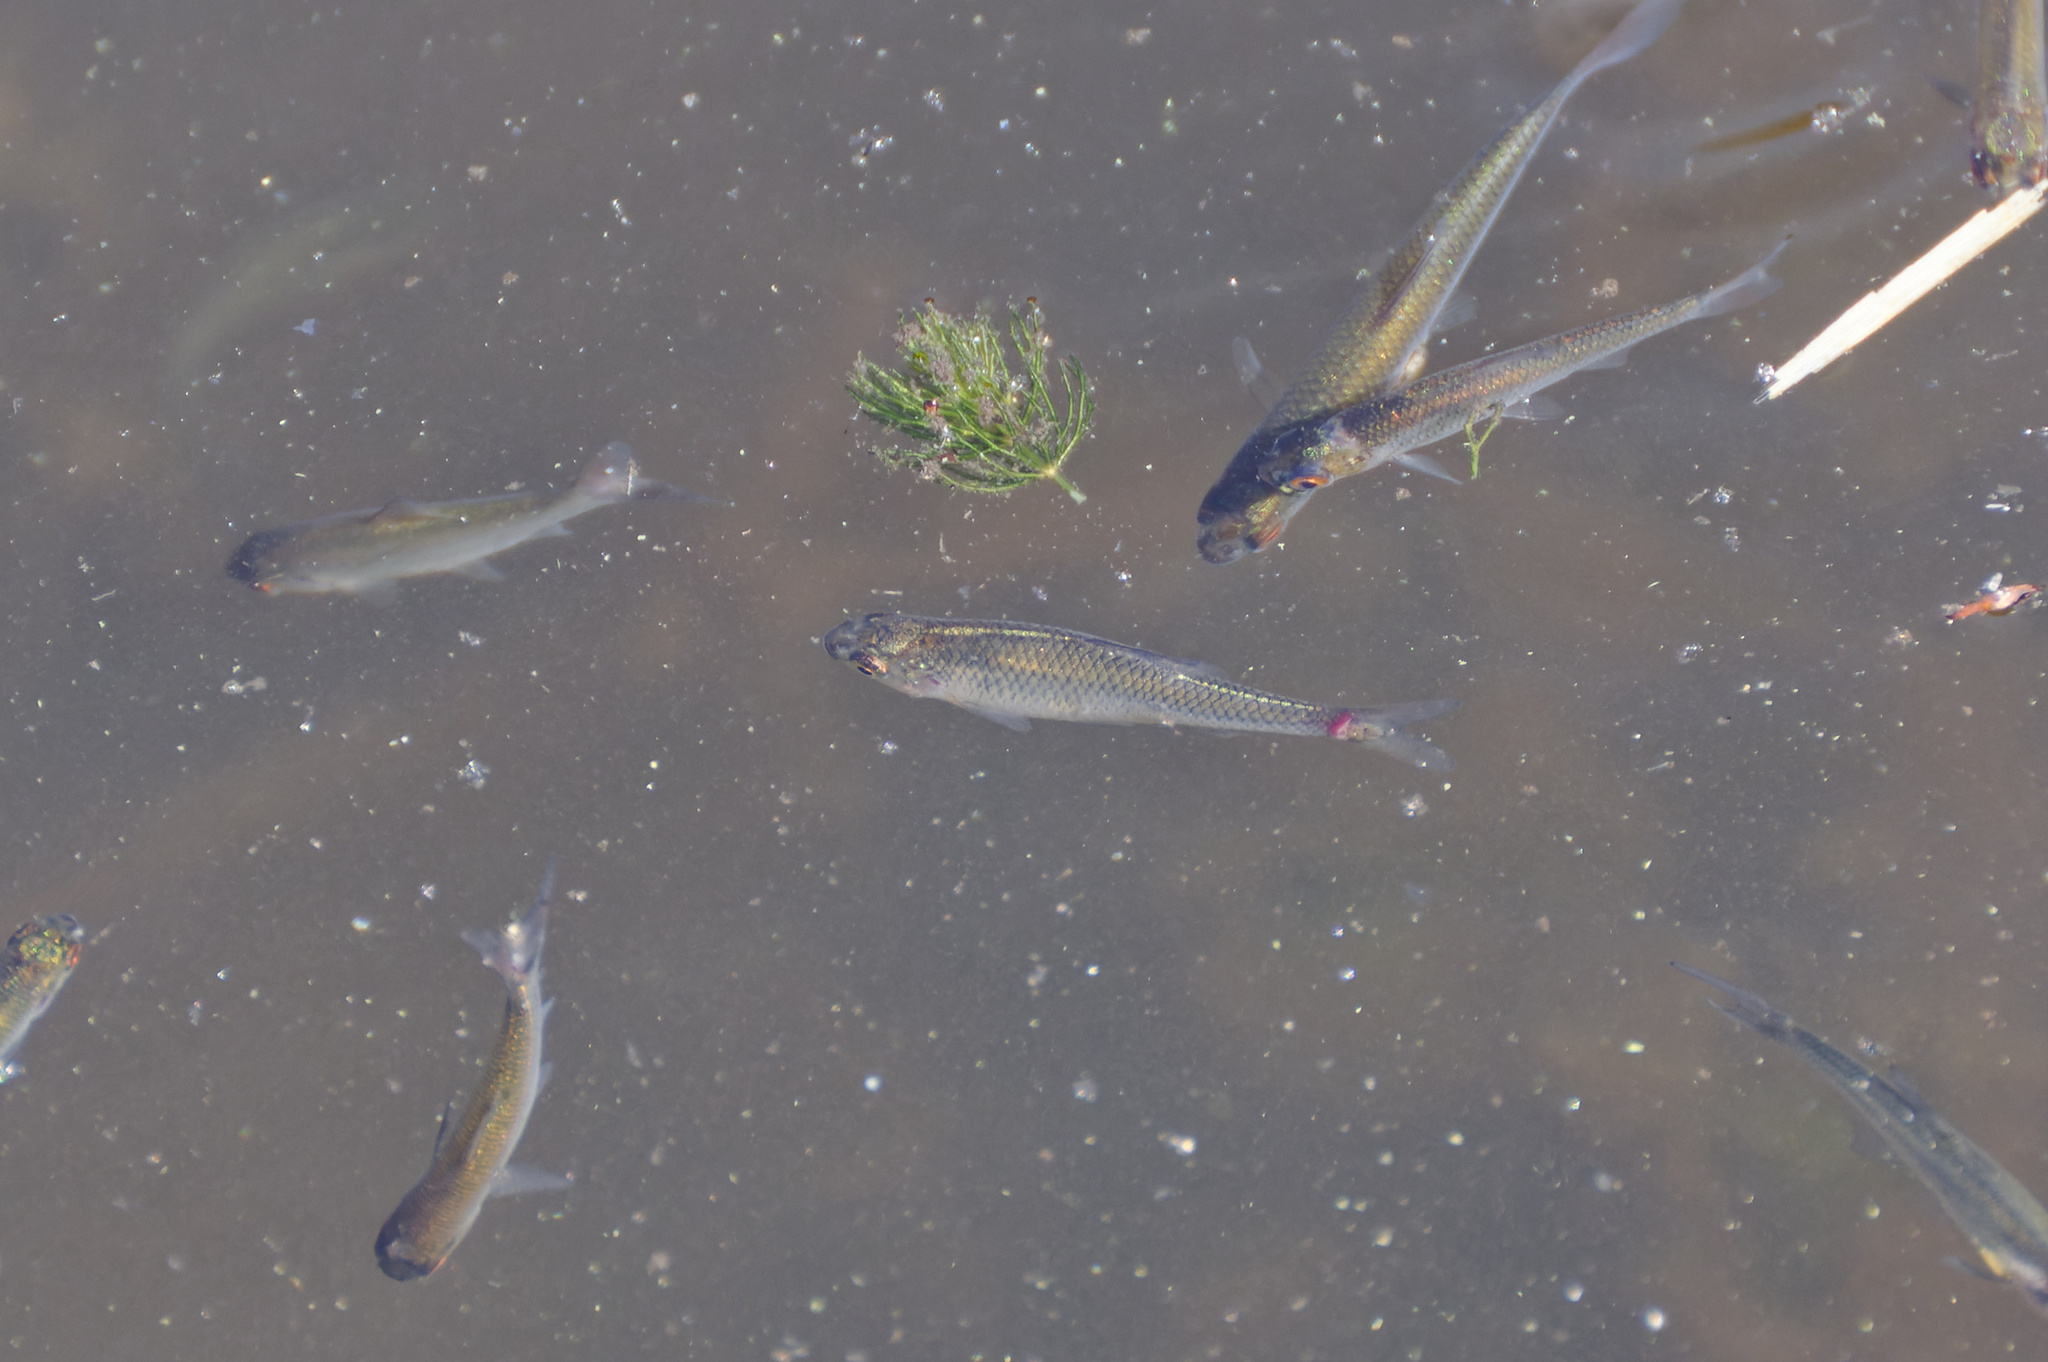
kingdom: Animalia
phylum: Chordata
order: Cypriniformes
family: Cyprinidae
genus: Rutilus
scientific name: Rutilus rutilus
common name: Roach
